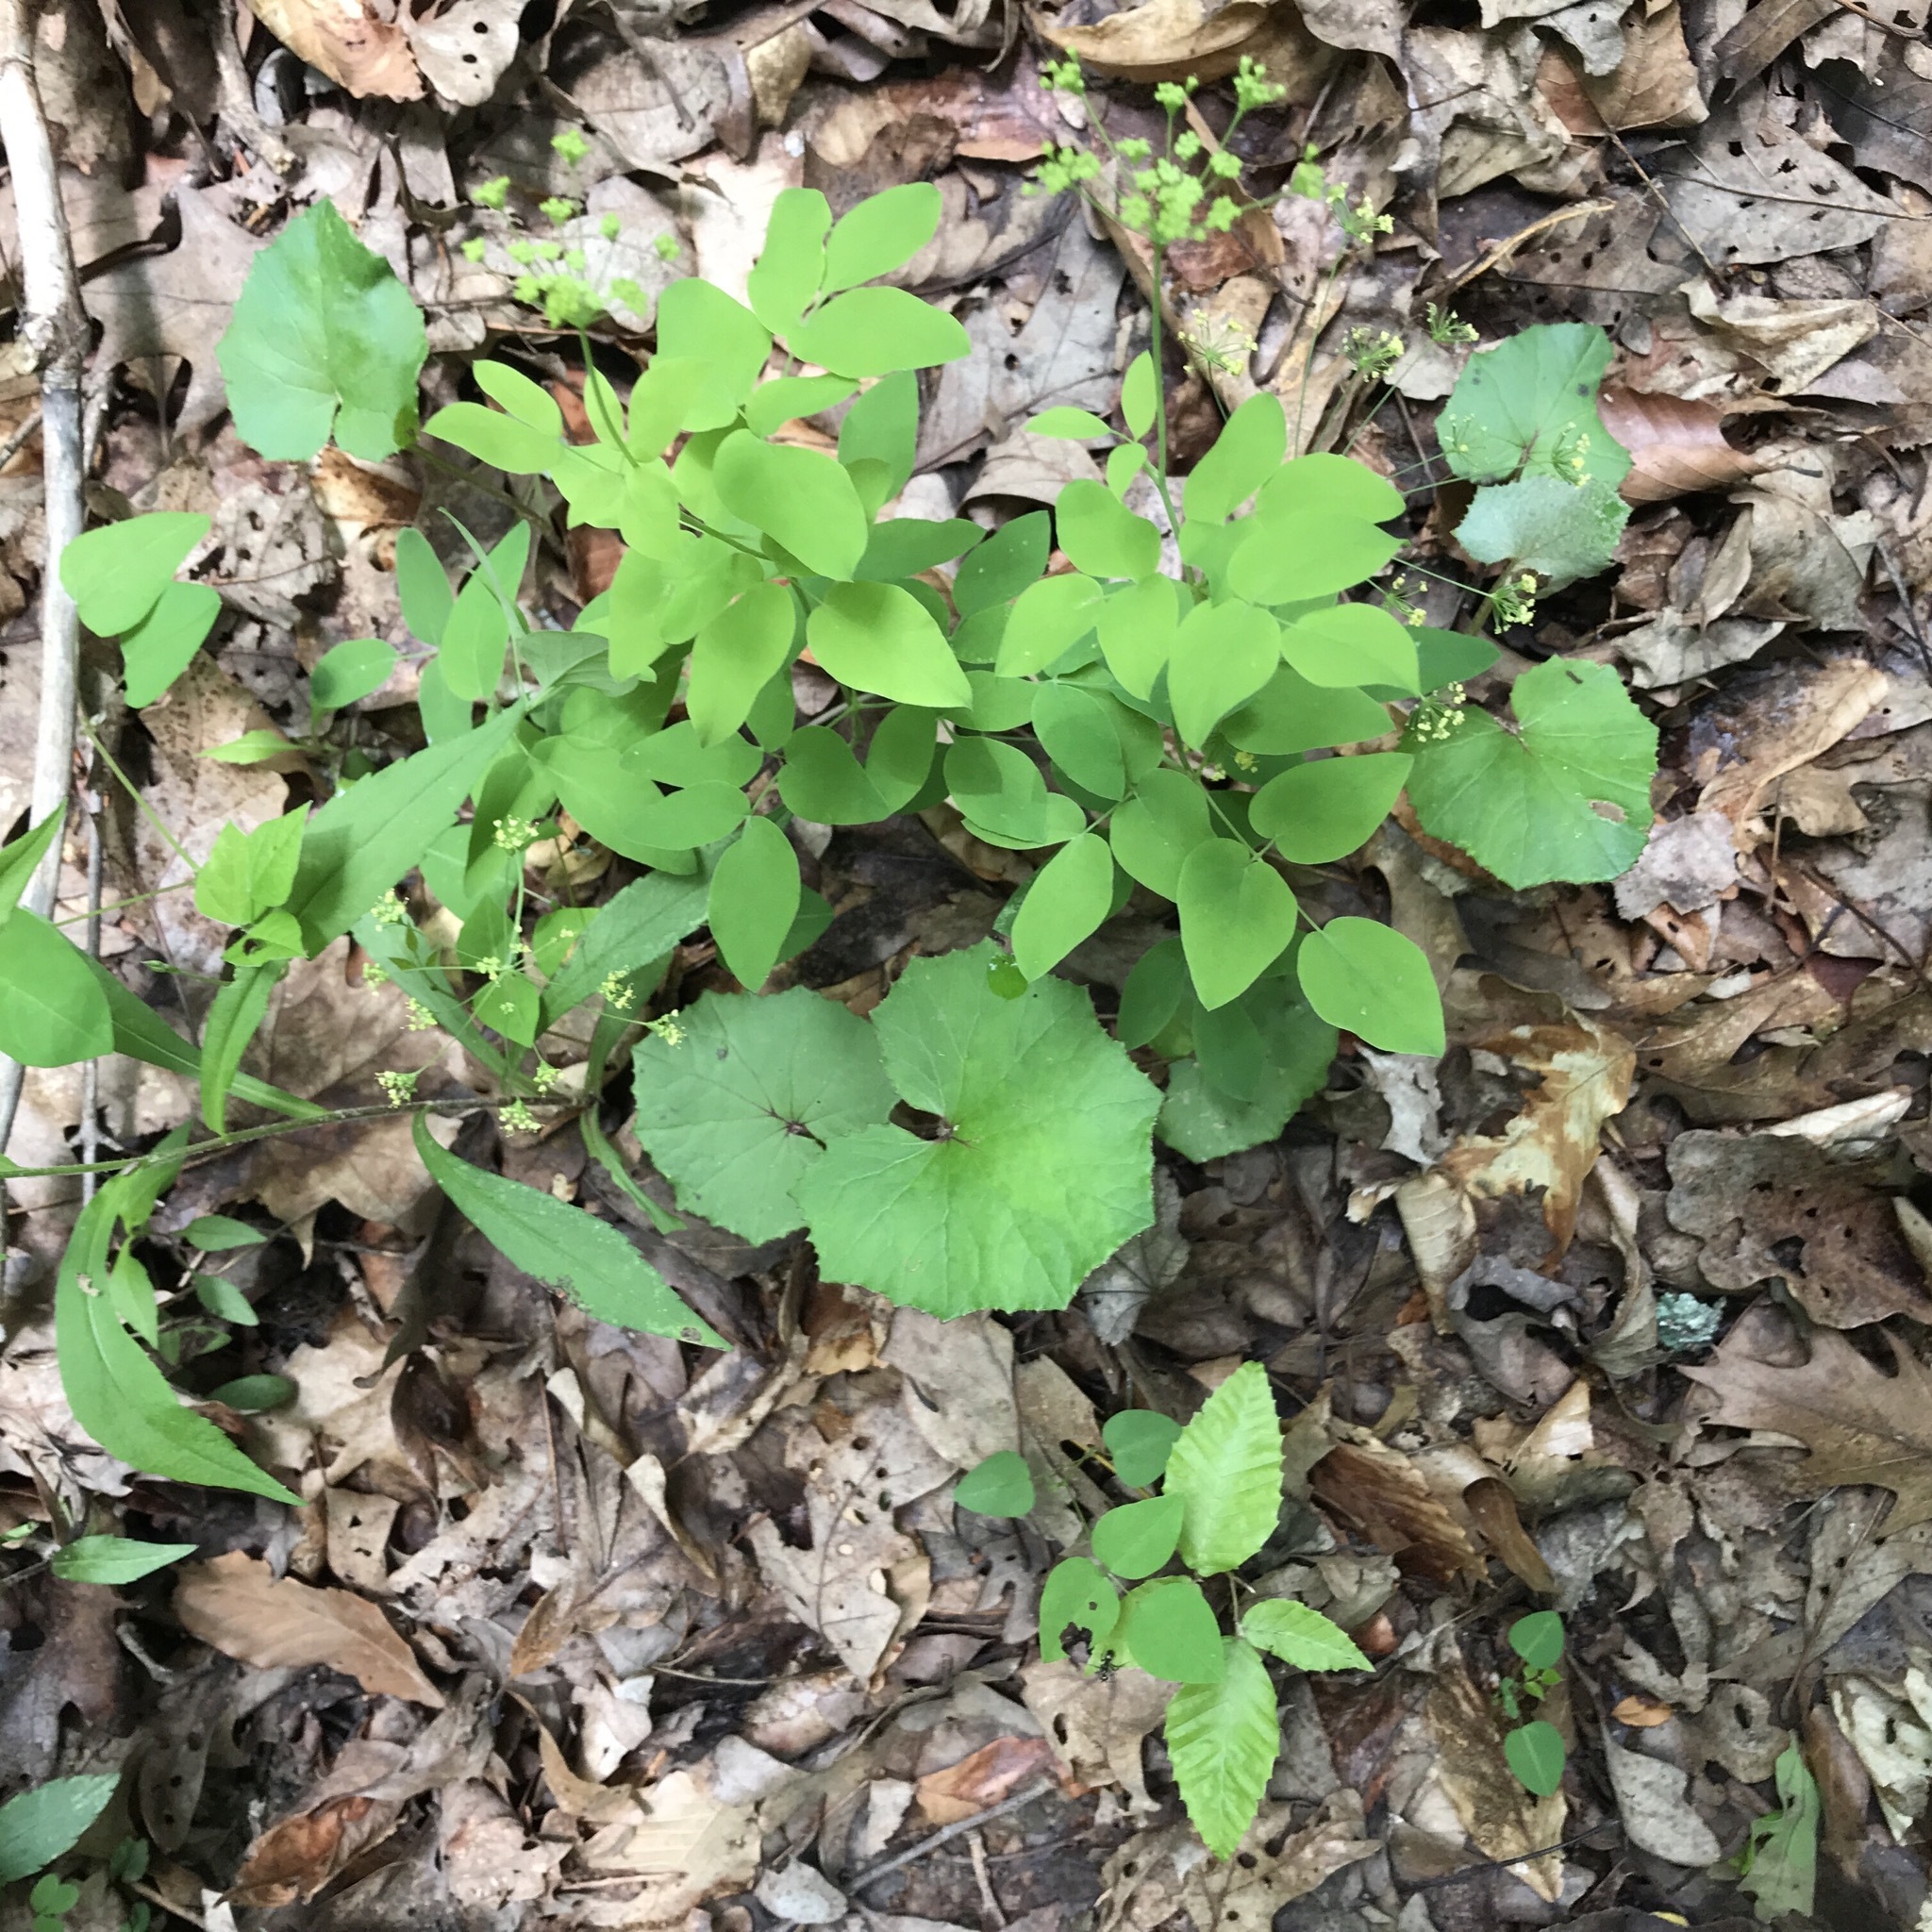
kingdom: Plantae
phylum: Tracheophyta
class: Magnoliopsida
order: Apiales
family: Apiaceae
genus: Taenidia
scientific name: Taenidia integerrima
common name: Golden alexander
